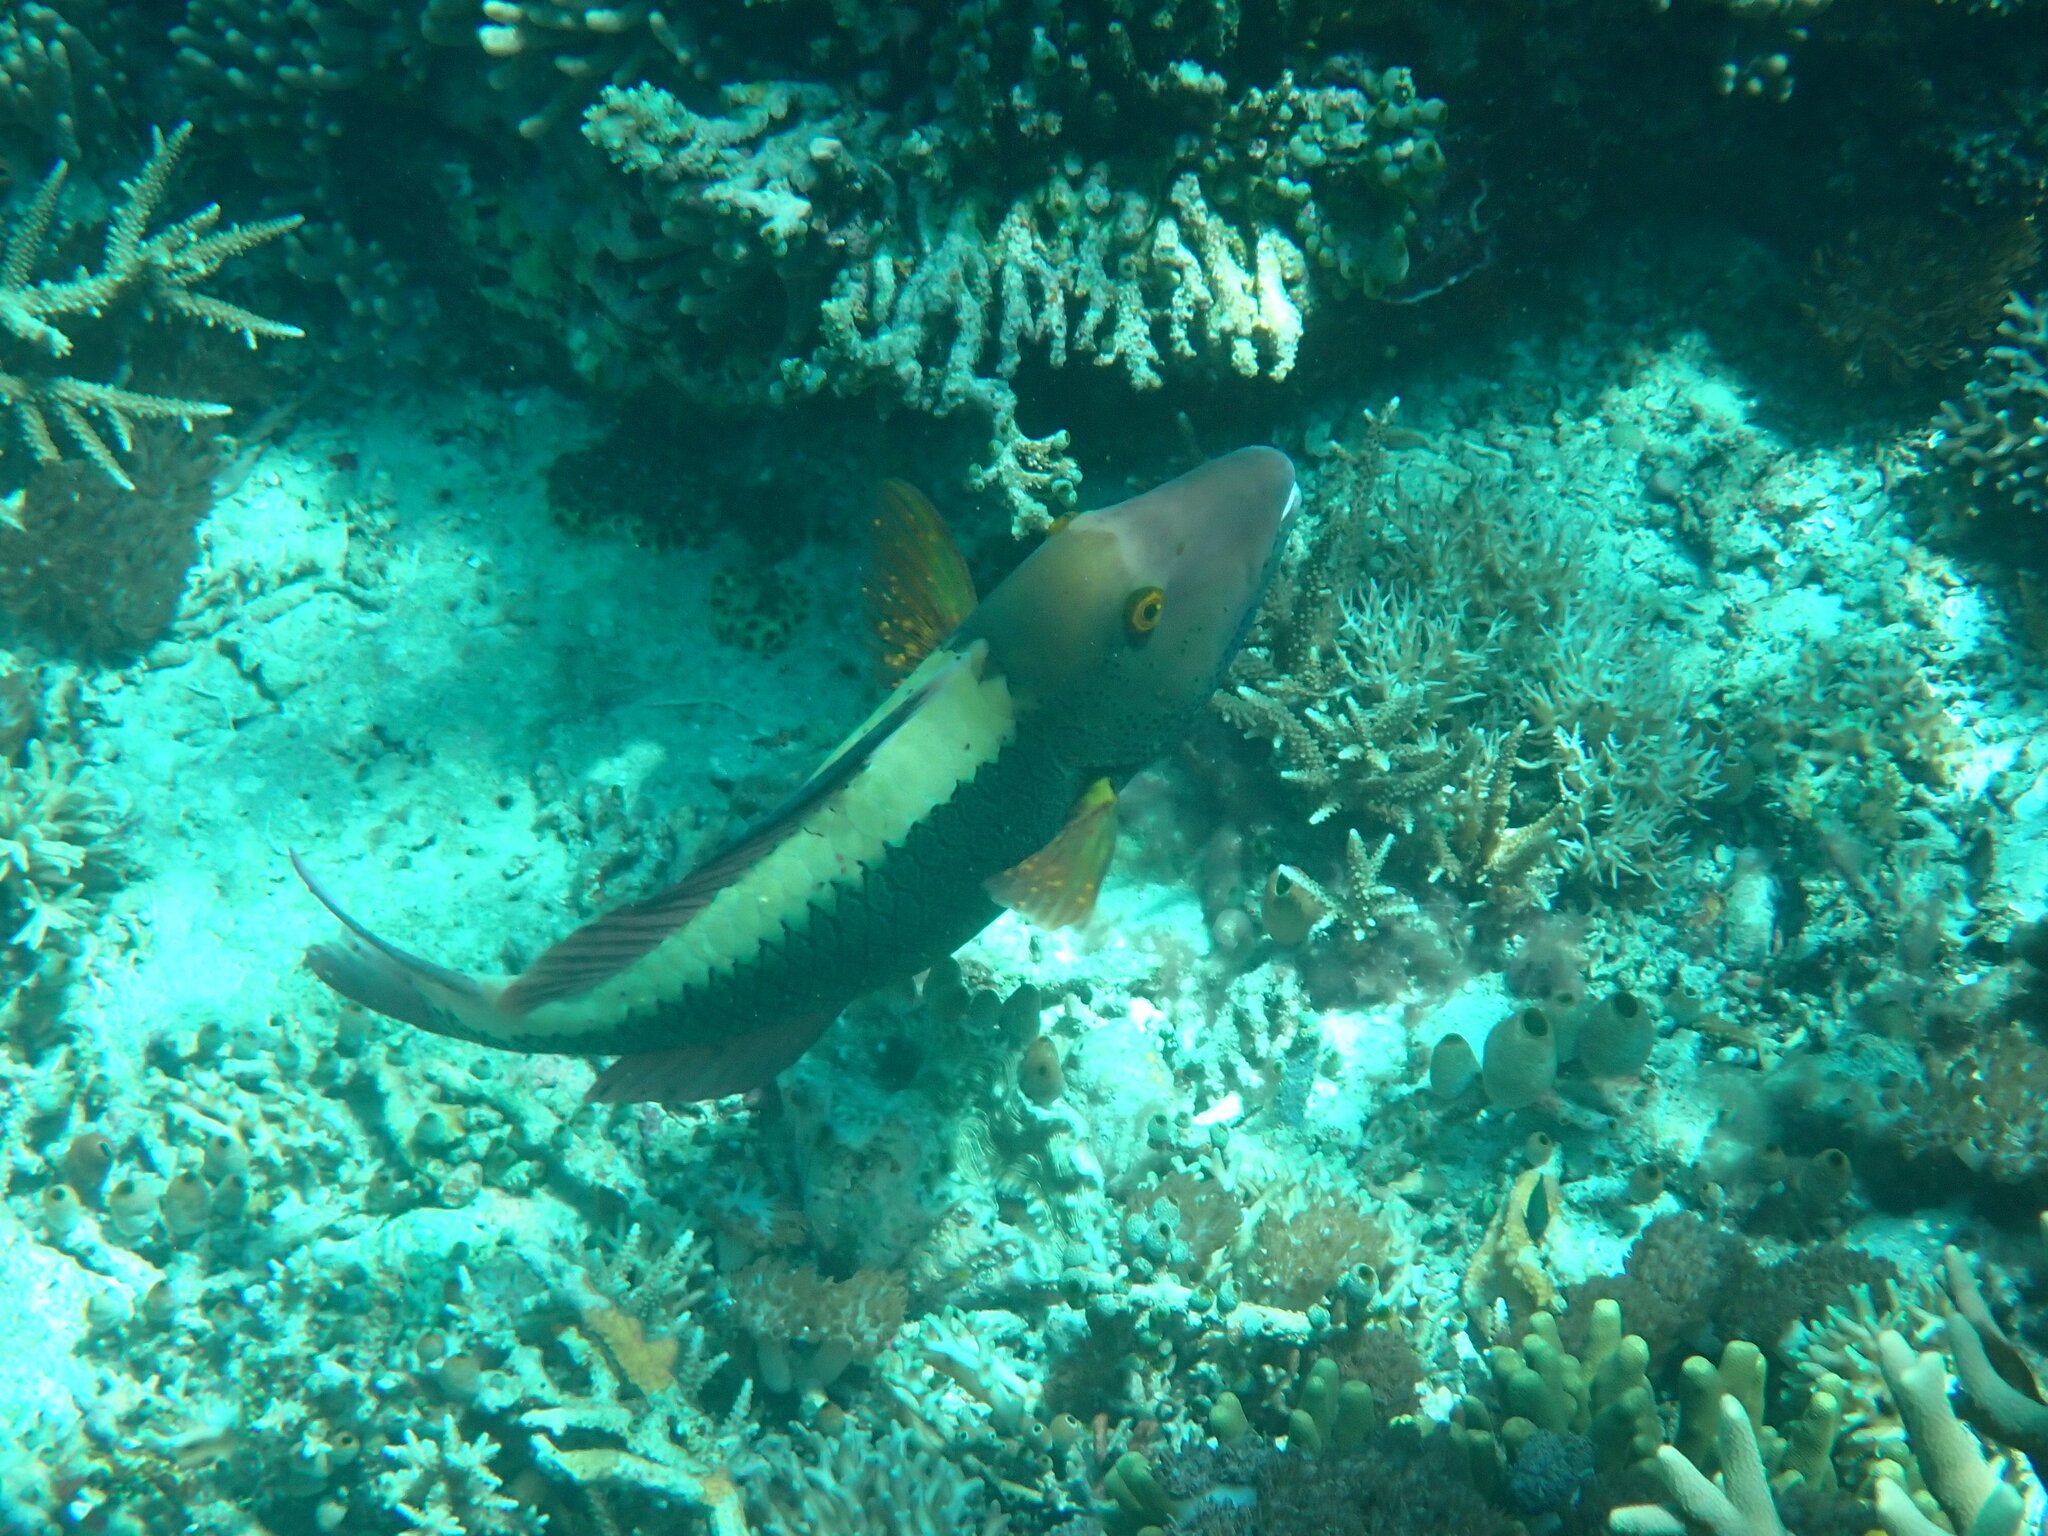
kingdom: Animalia
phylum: Chordata
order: Perciformes
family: Scaridae
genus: Cetoscarus
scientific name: Cetoscarus ocellatus
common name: Bicolor parrotfish
